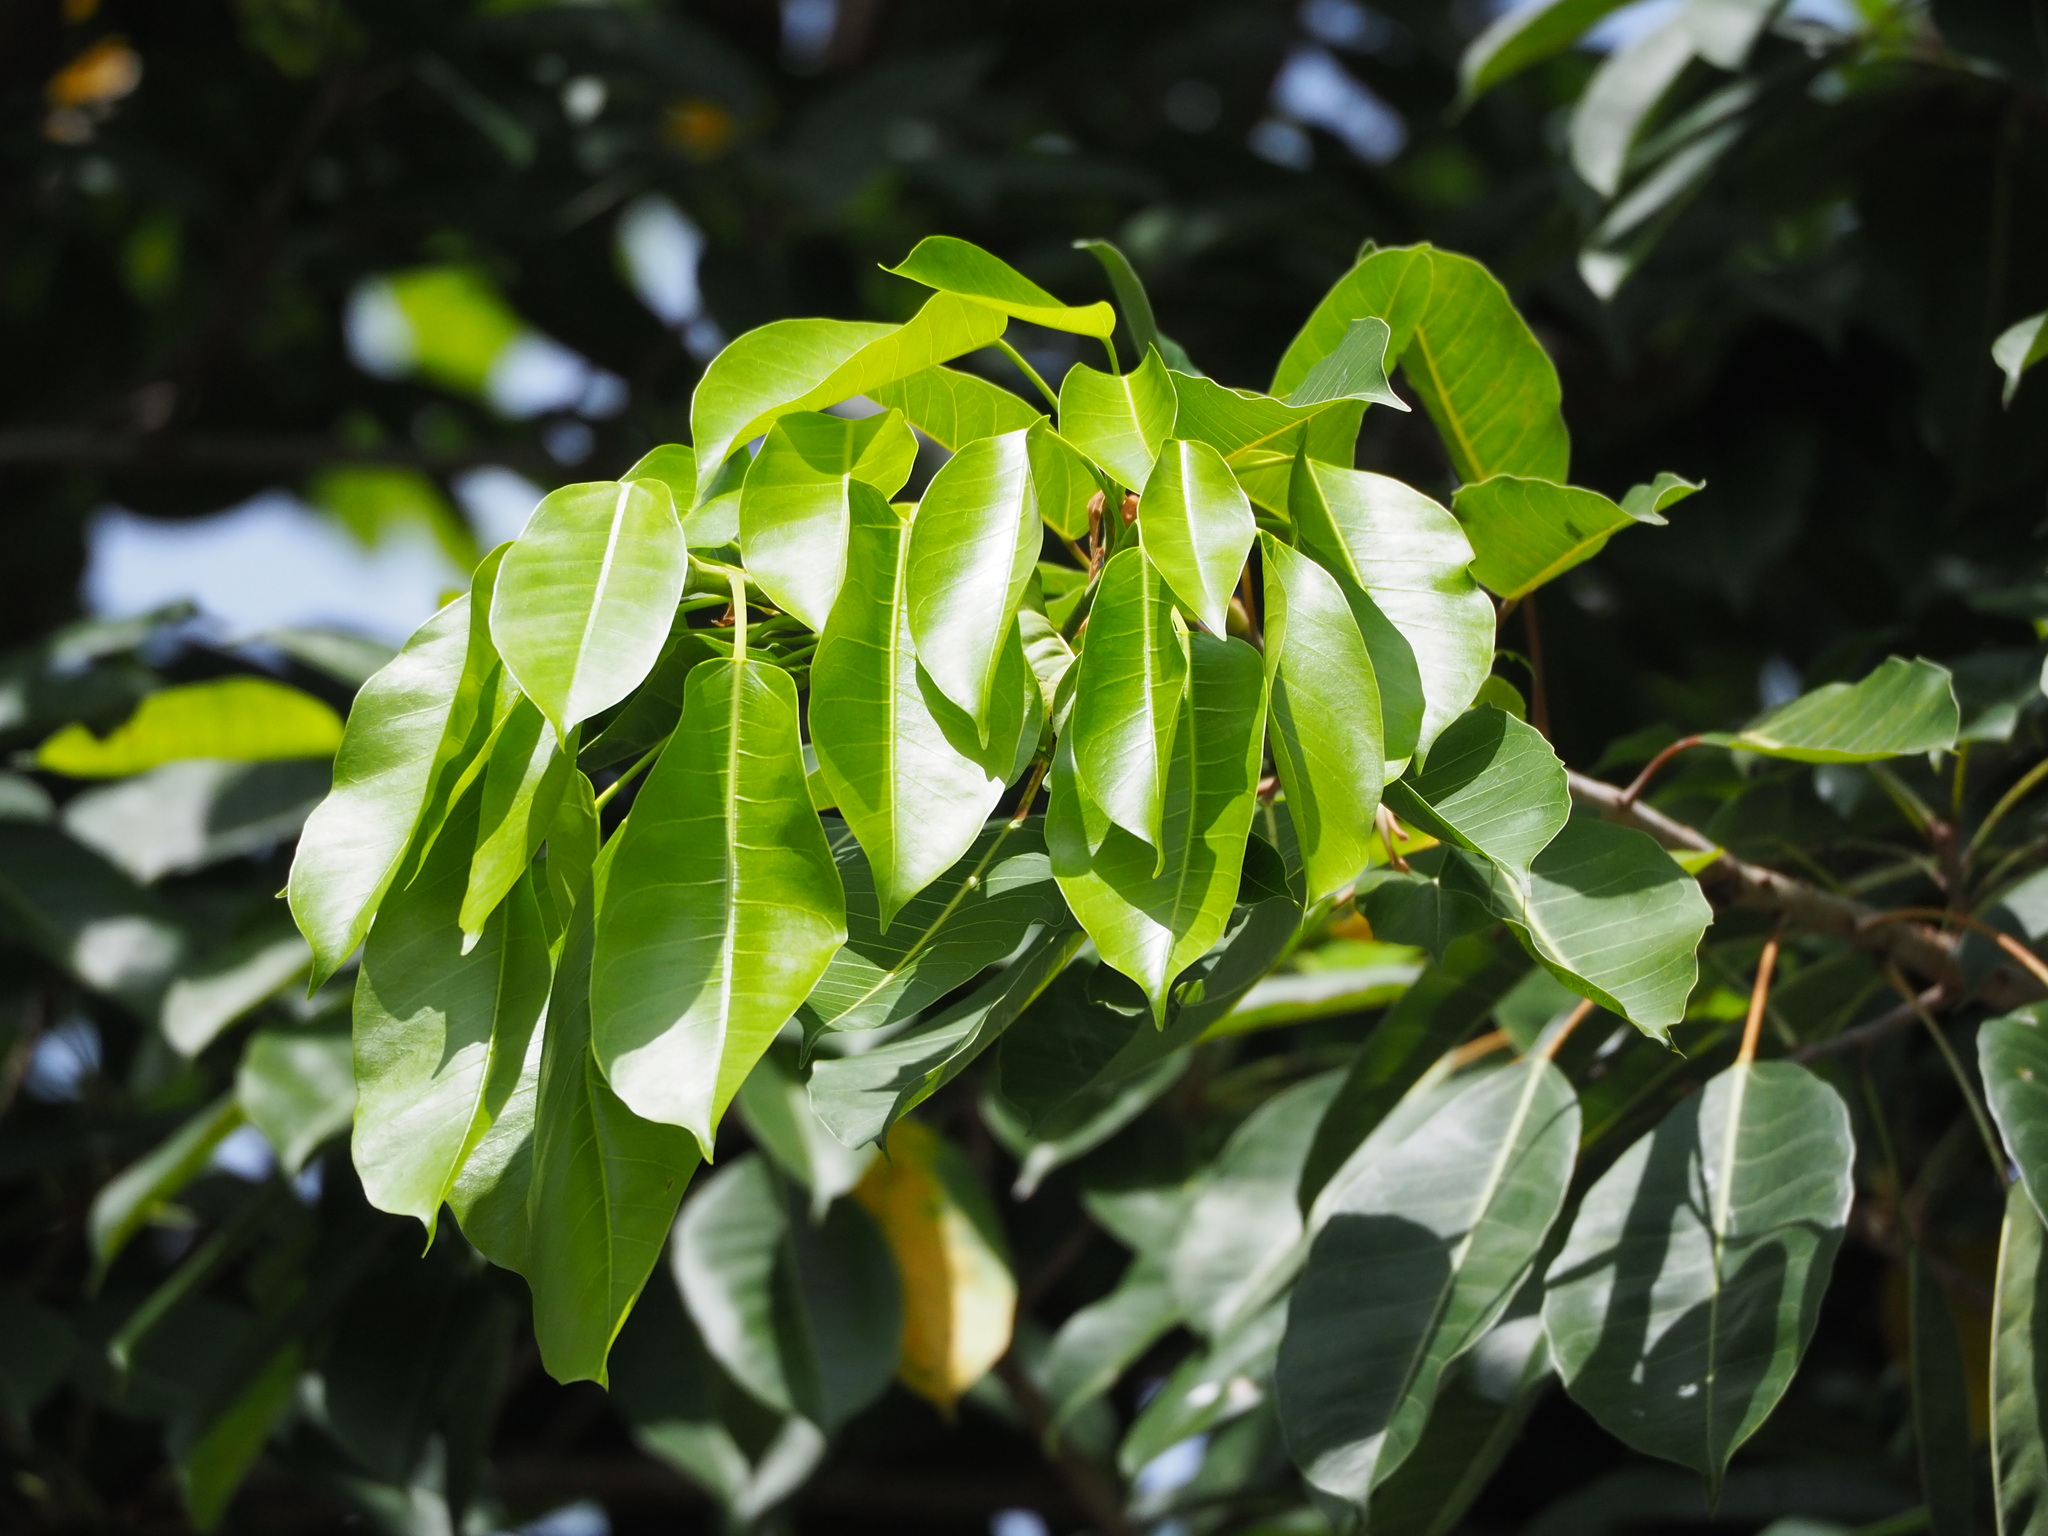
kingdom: Plantae
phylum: Tracheophyta
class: Magnoliopsida
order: Rosales
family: Moraceae
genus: Ficus
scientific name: Ficus caulocarpa
